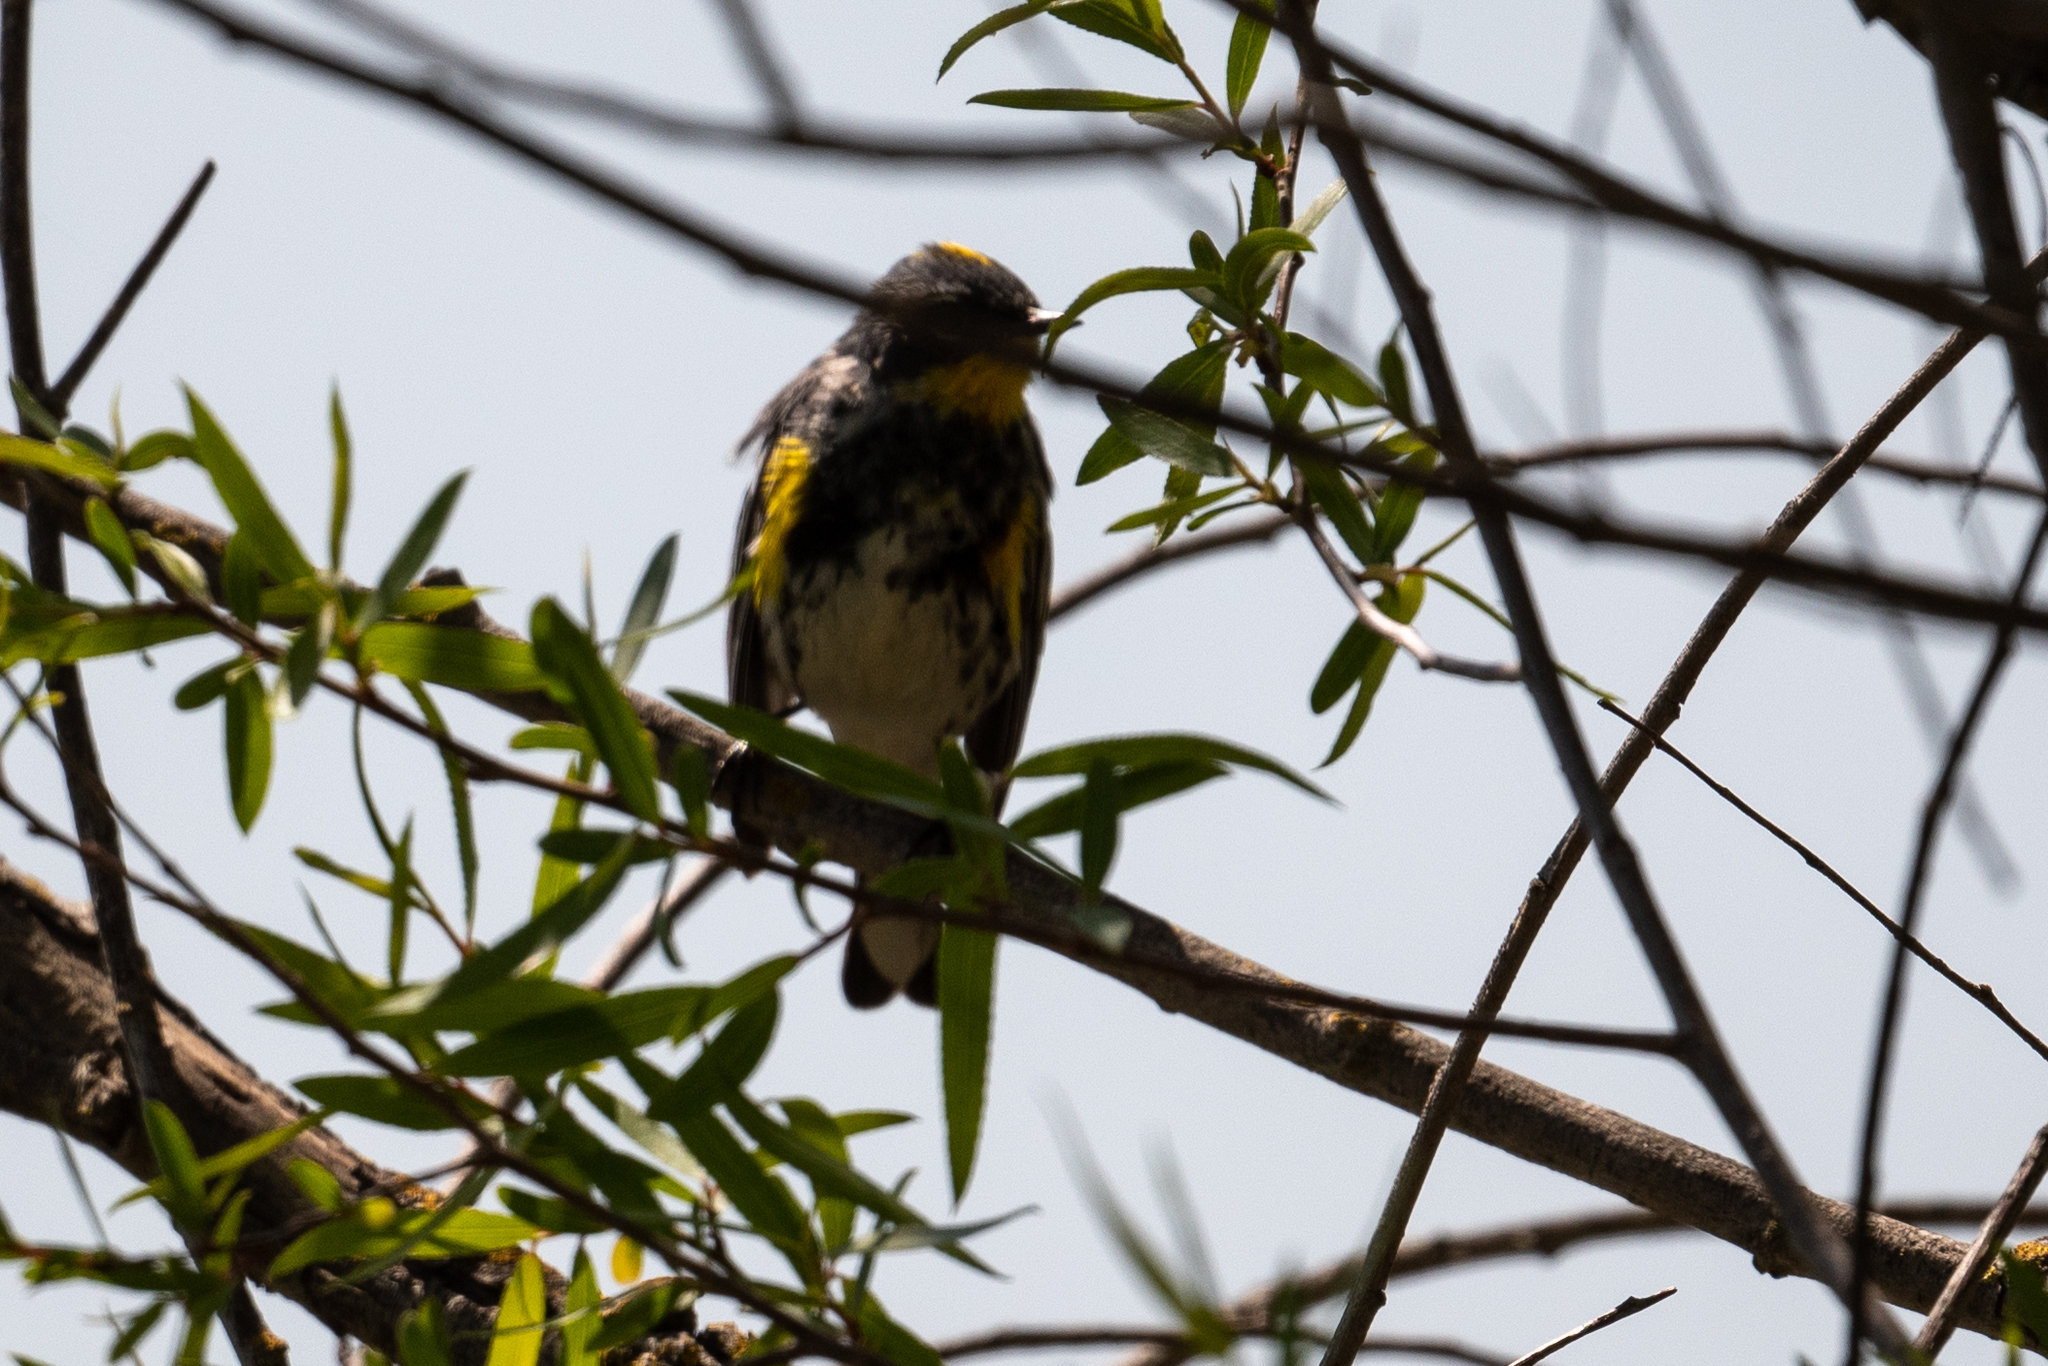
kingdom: Animalia
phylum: Chordata
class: Aves
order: Passeriformes
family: Parulidae
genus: Setophaga
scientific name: Setophaga coronata
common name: Myrtle warbler
